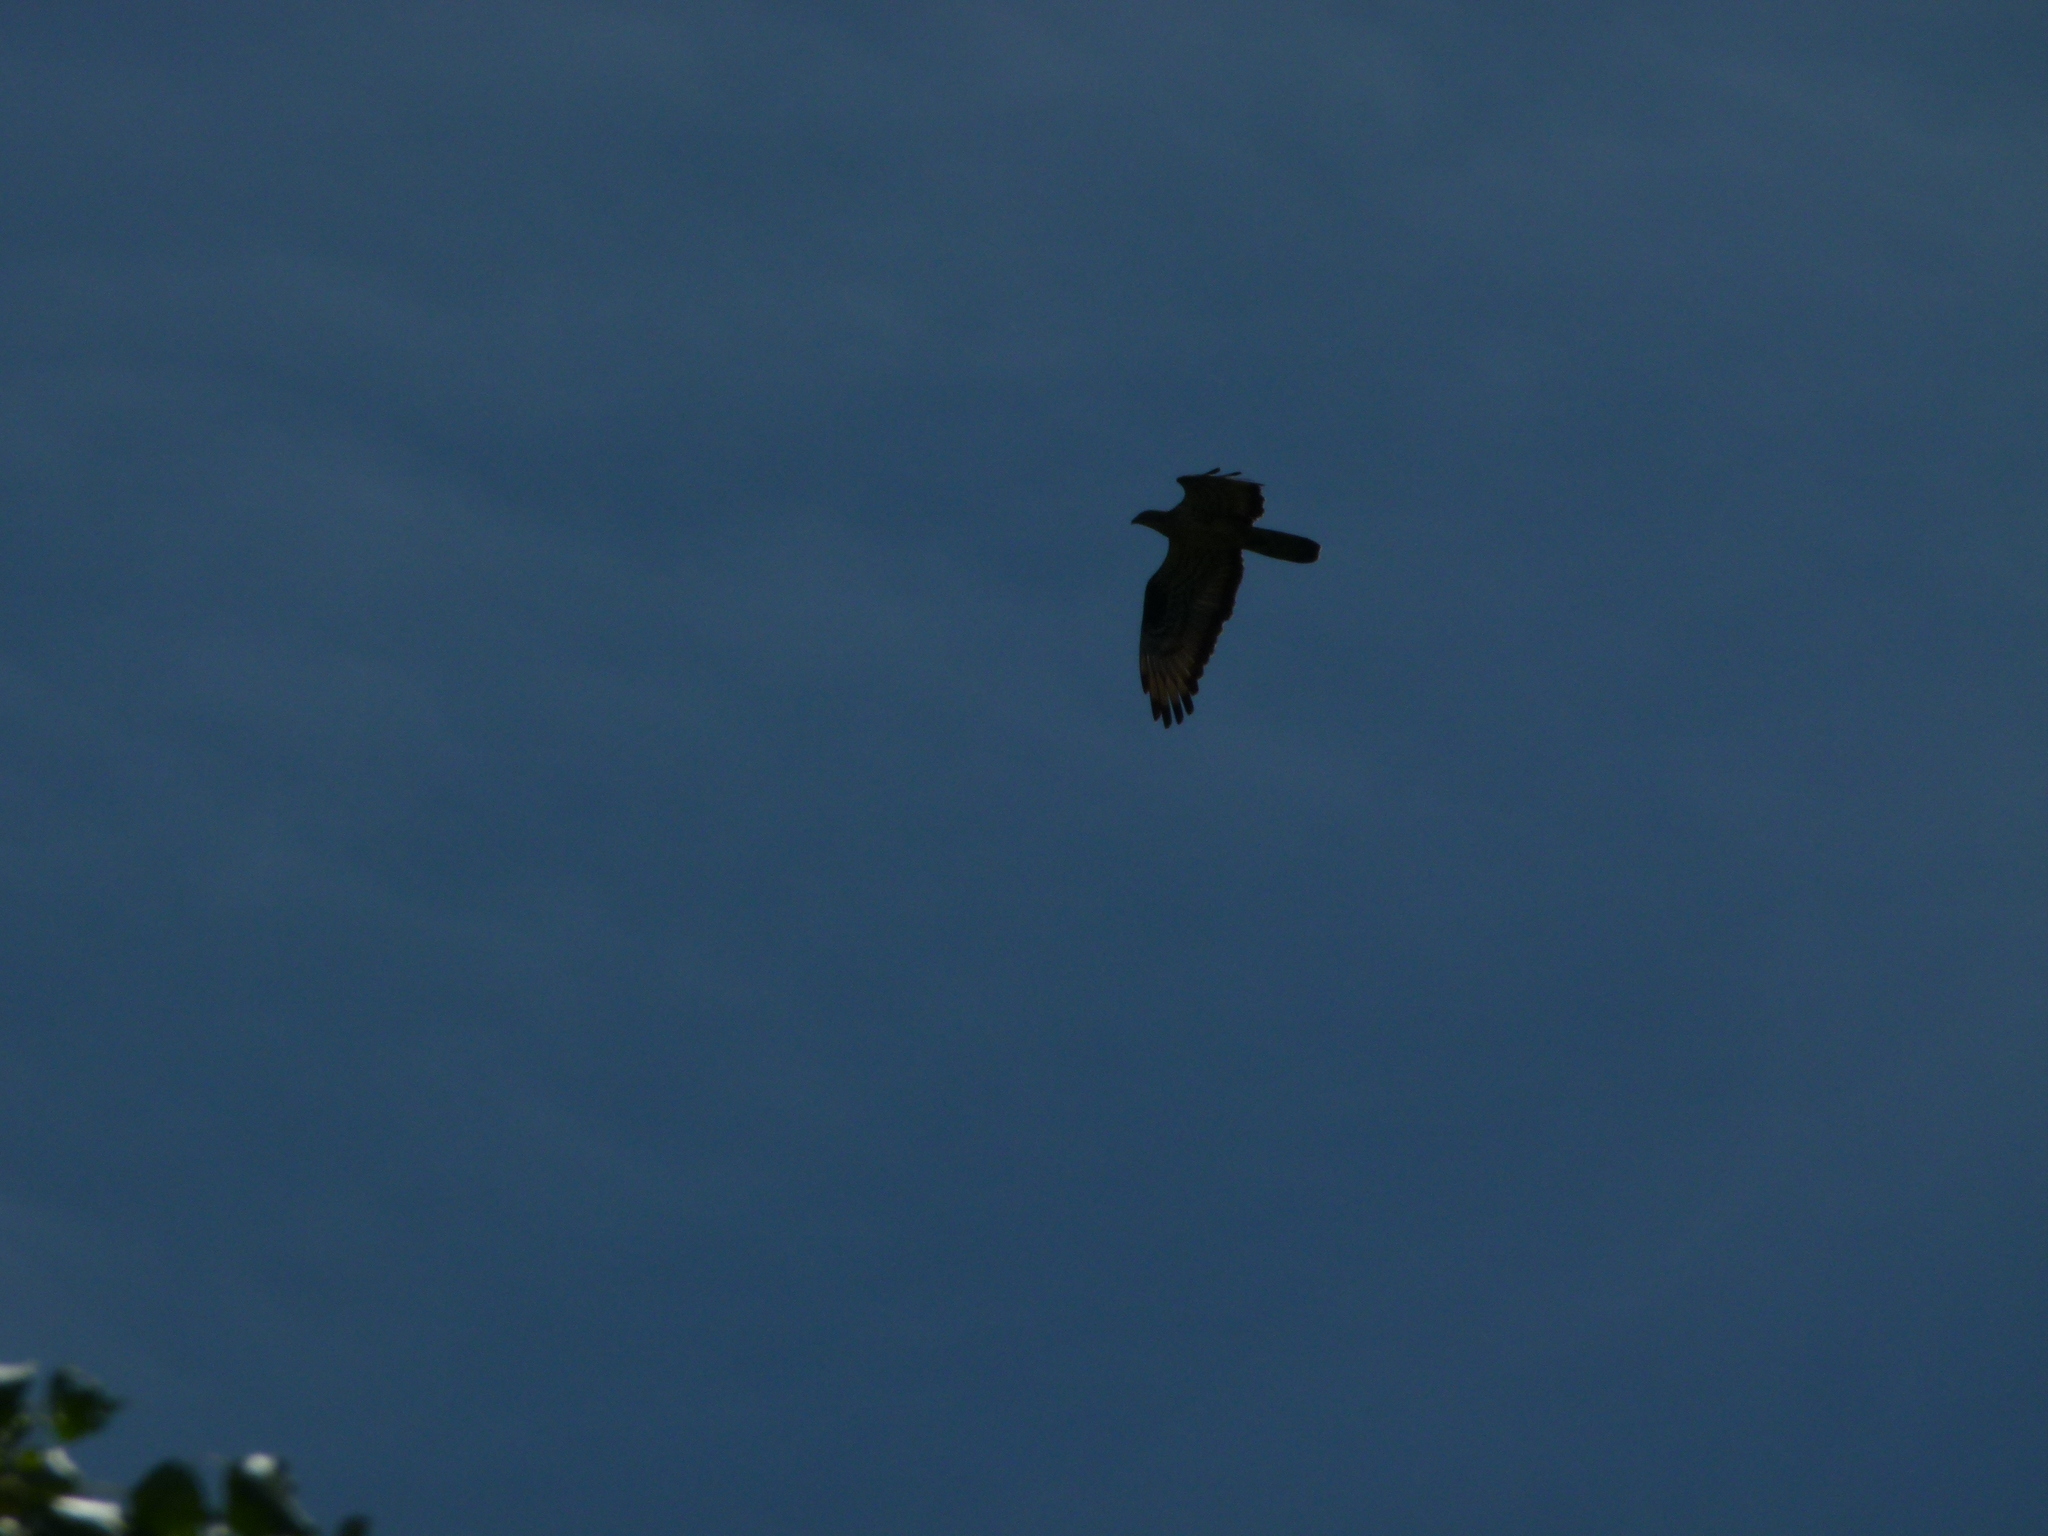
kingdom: Animalia
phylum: Chordata
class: Aves
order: Accipitriformes
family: Accipitridae
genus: Pernis
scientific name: Pernis apivorus
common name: European honey buzzard
